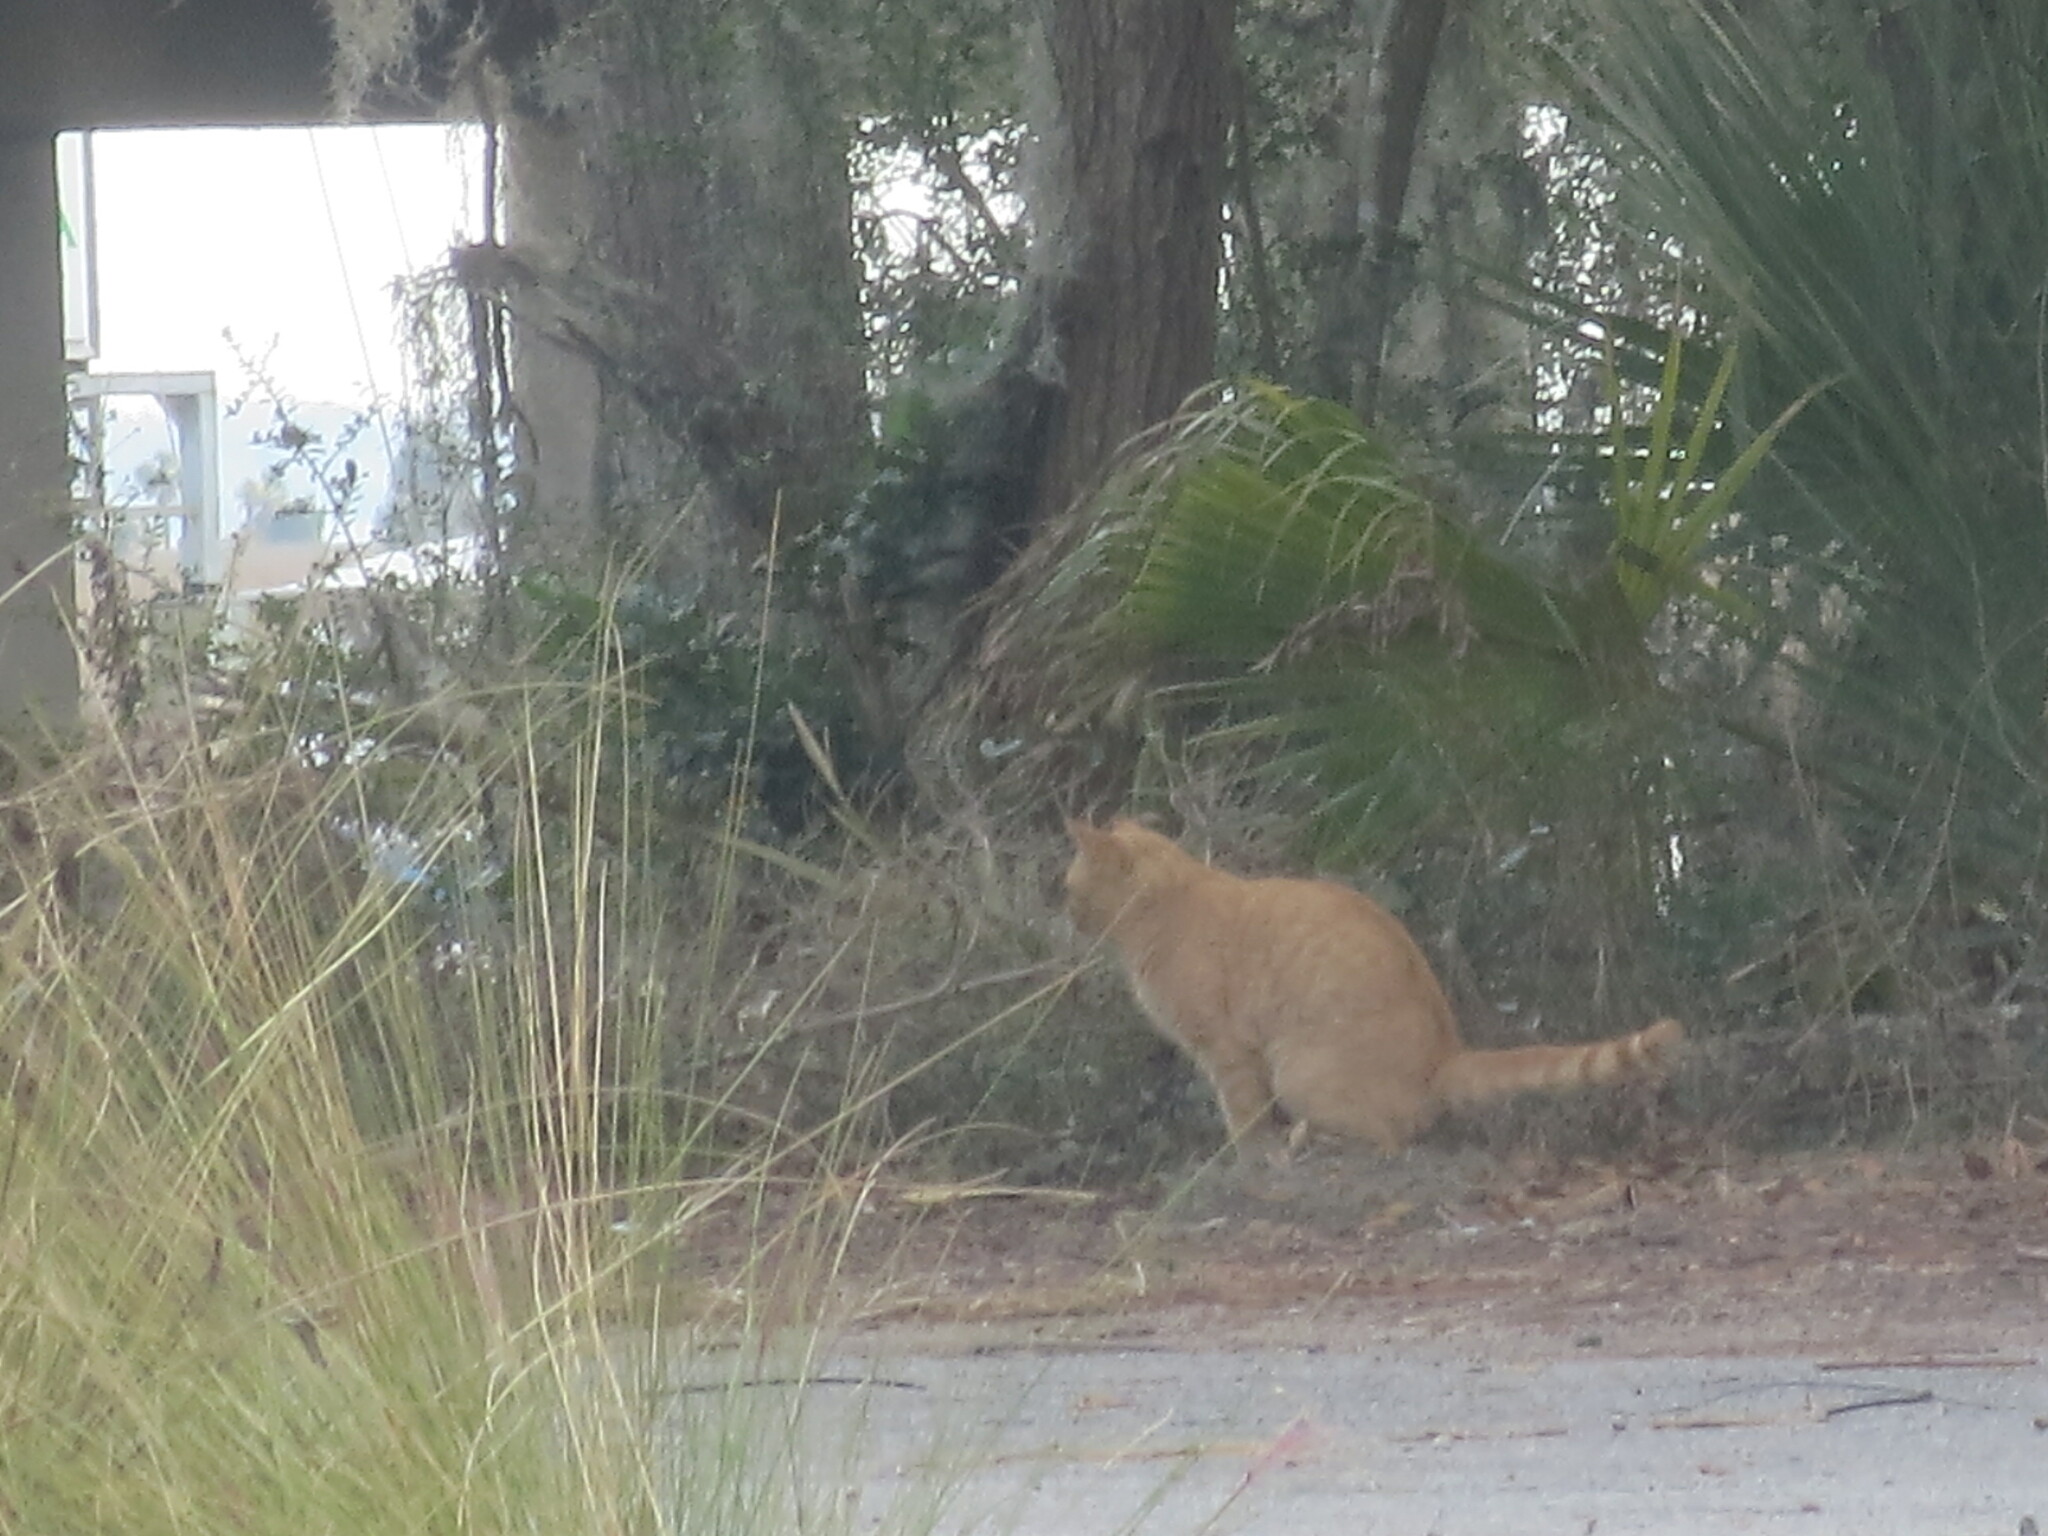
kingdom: Animalia
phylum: Chordata
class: Mammalia
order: Carnivora
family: Felidae
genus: Felis
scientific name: Felis catus
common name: Domestic cat
